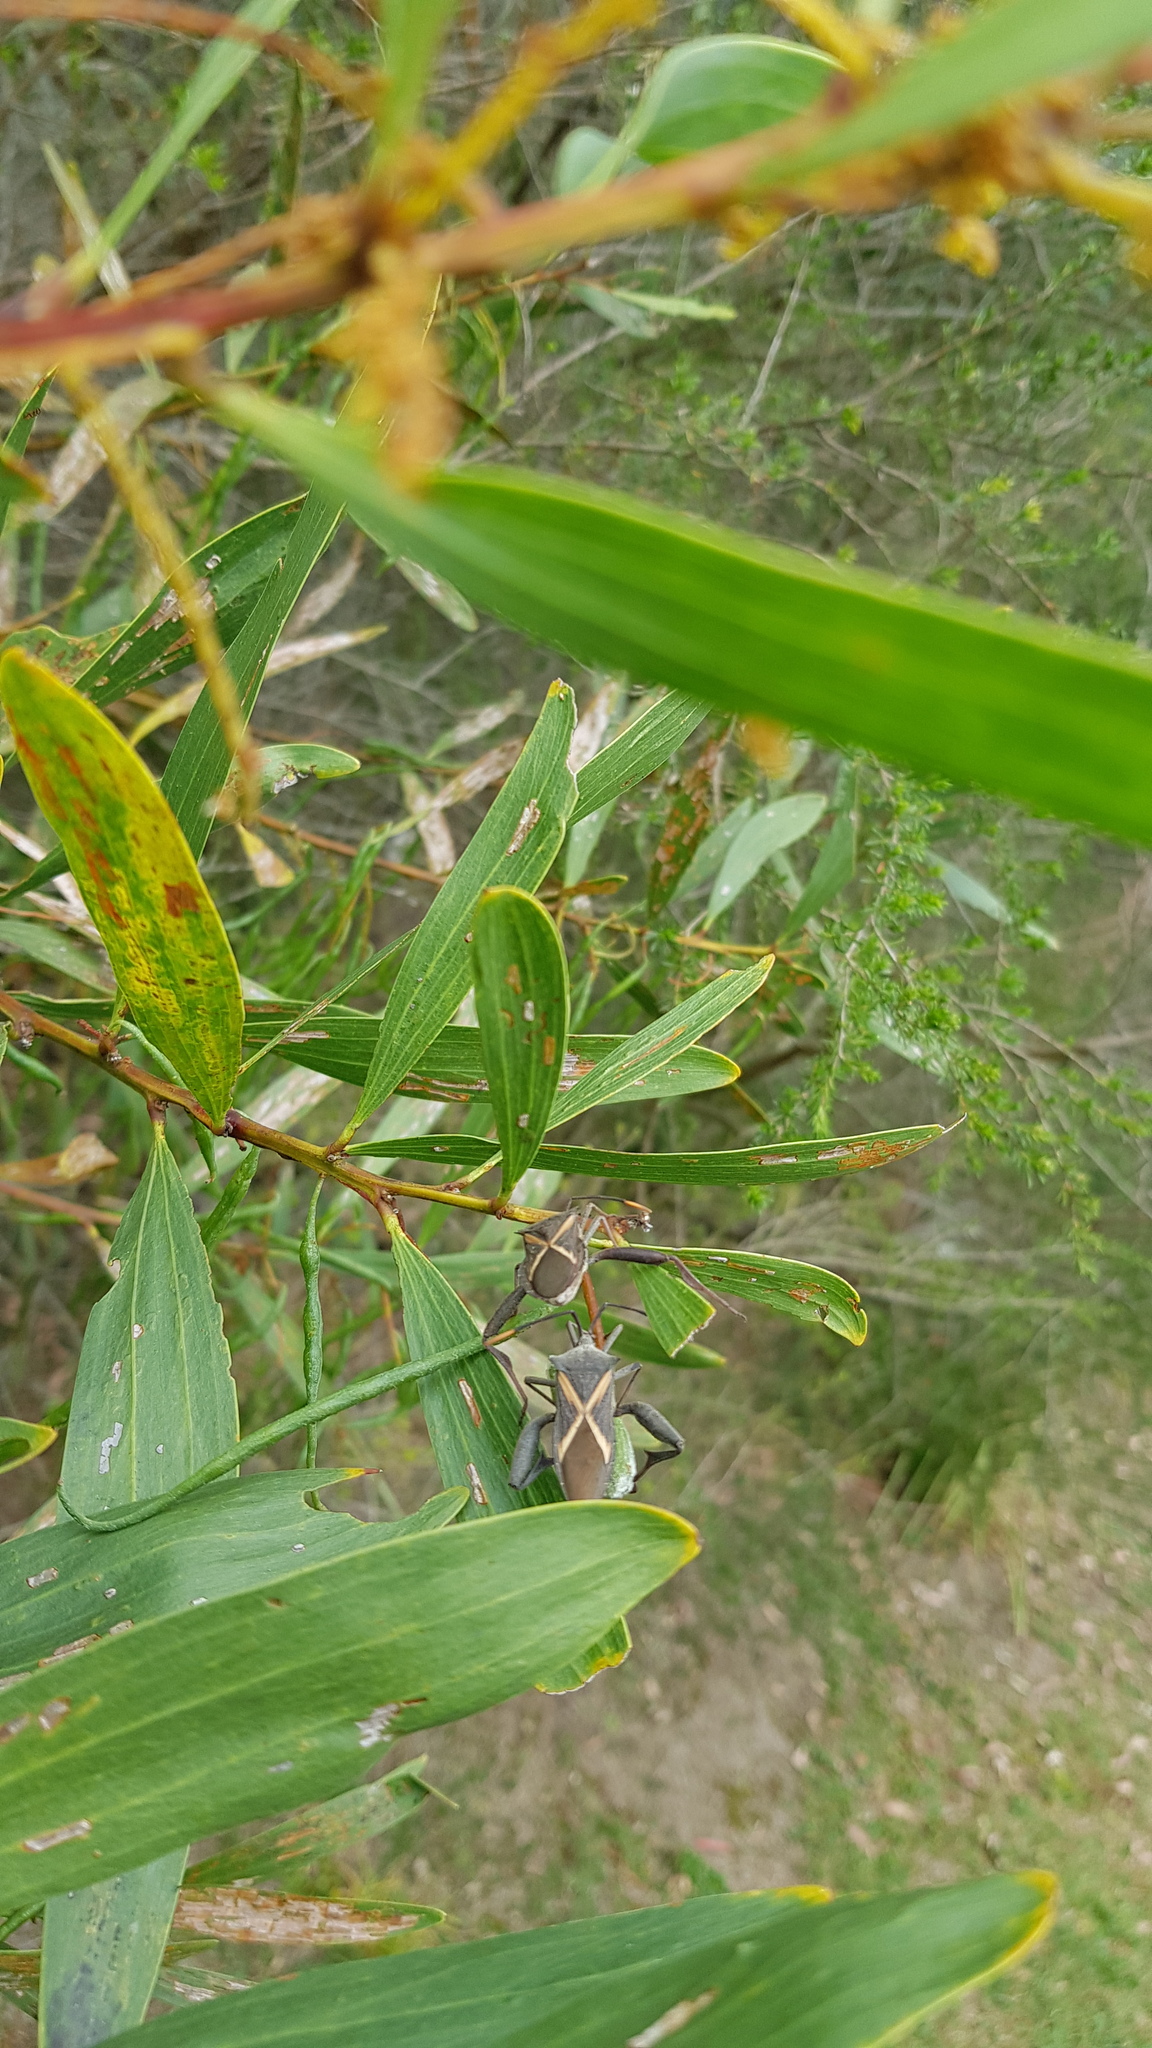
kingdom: Animalia
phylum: Arthropoda
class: Insecta
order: Hemiptera
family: Coreidae
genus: Mictis
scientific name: Mictis profana
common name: Crusader bug
